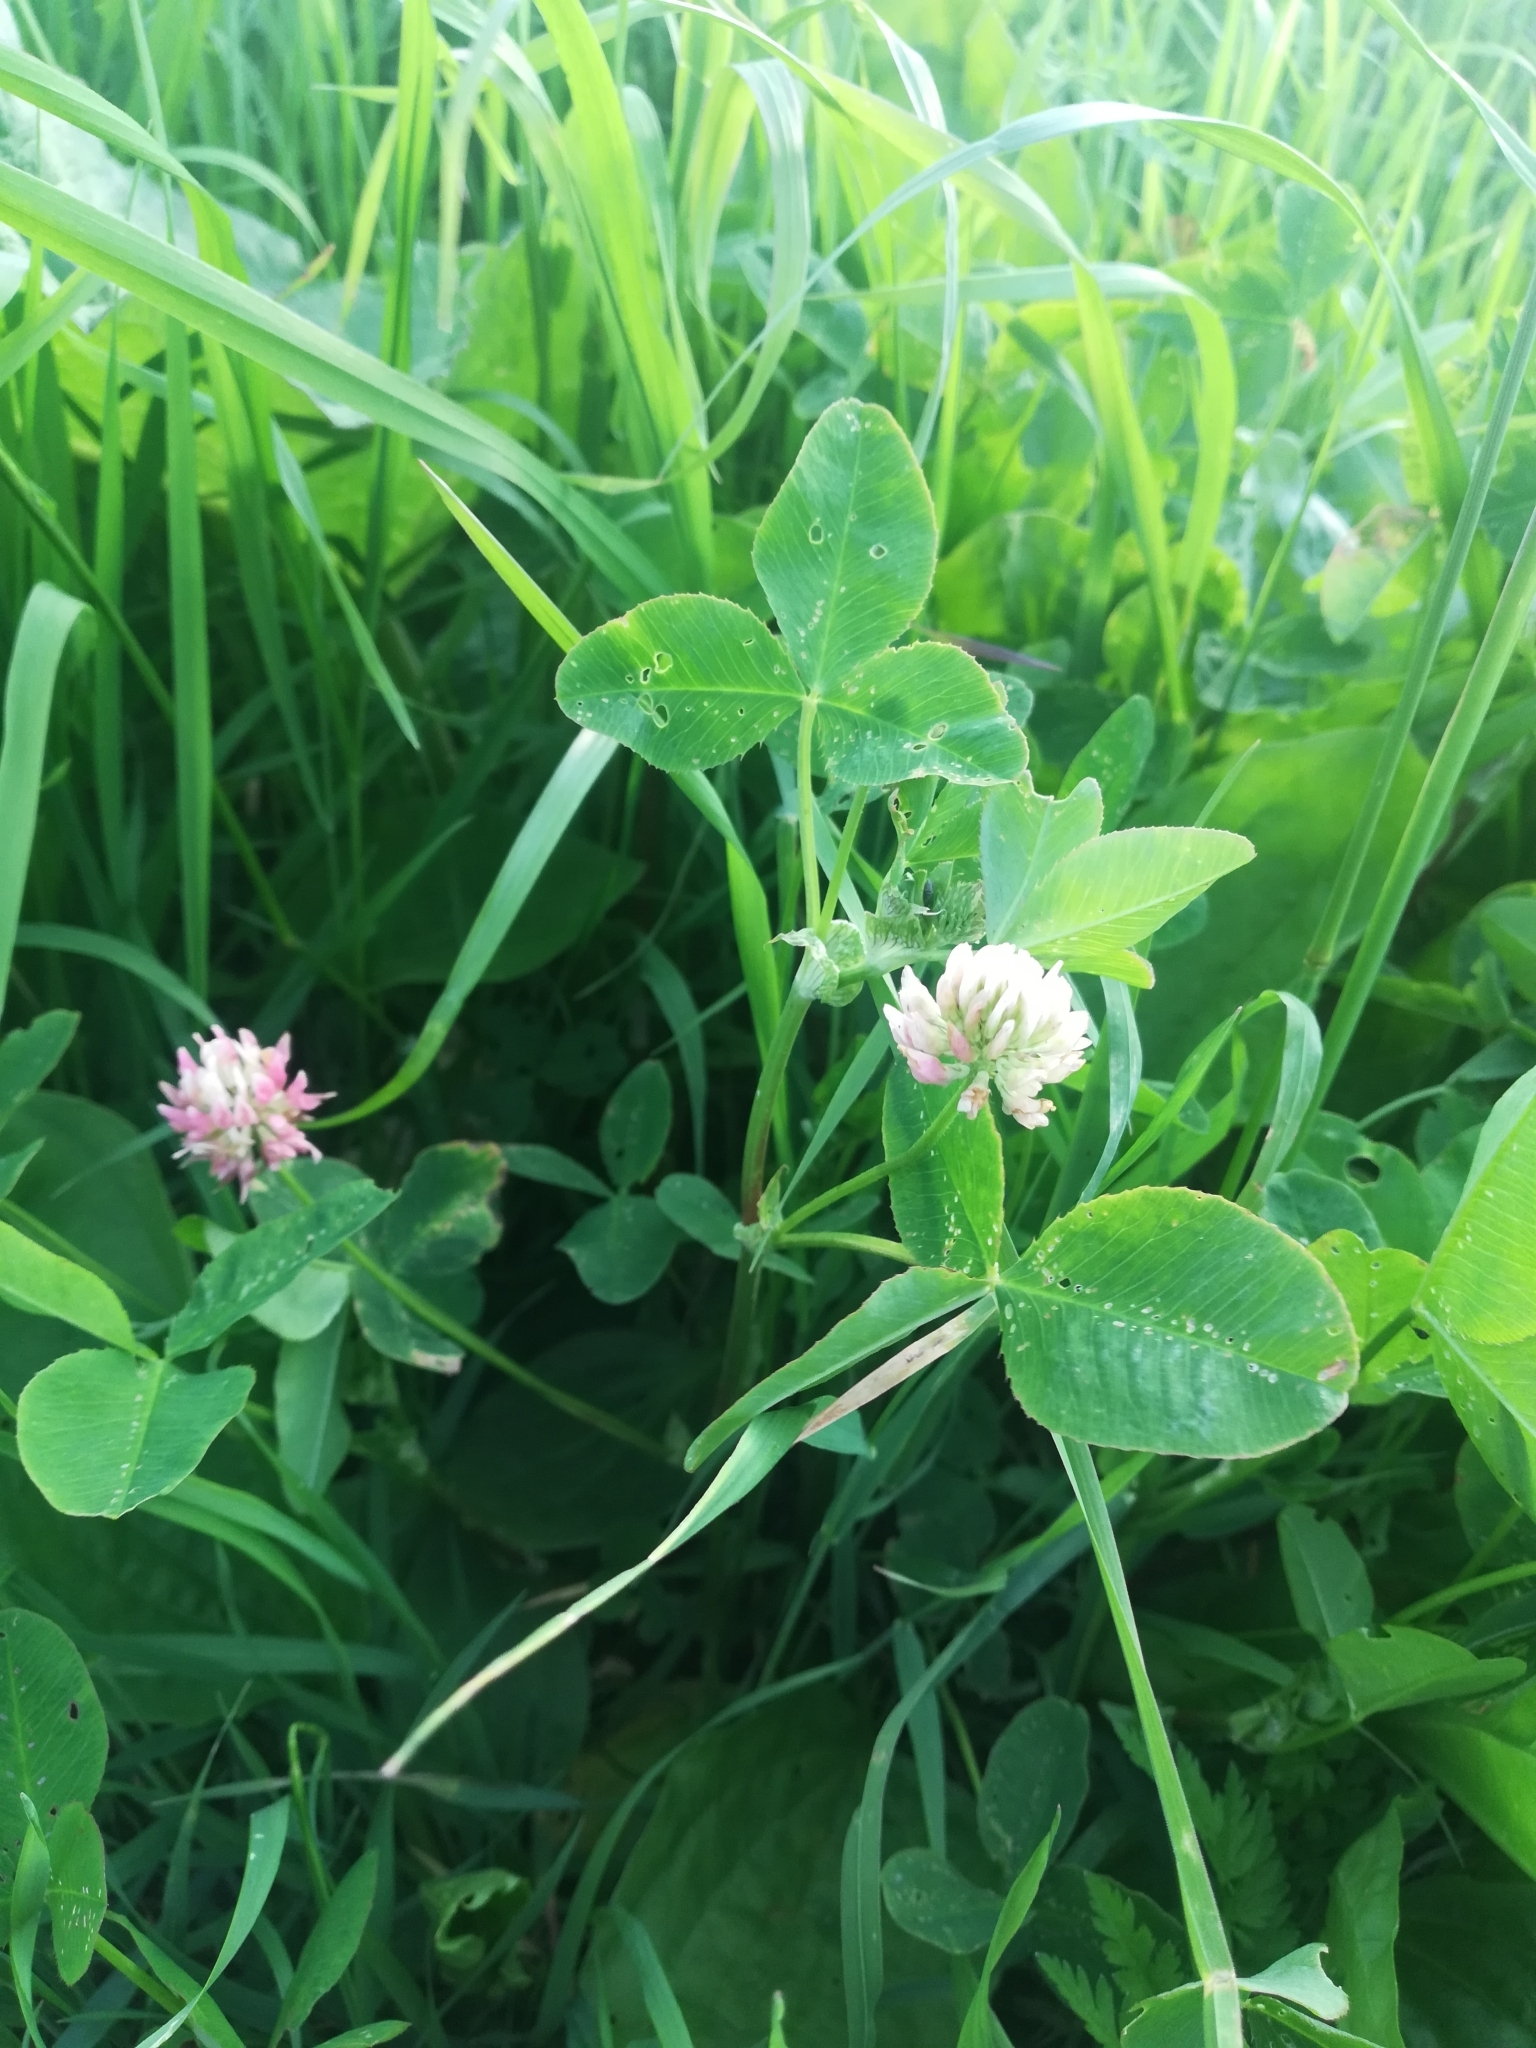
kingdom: Plantae
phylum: Tracheophyta
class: Magnoliopsida
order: Fabales
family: Fabaceae
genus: Trifolium
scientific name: Trifolium hybridum
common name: Alsike clover
